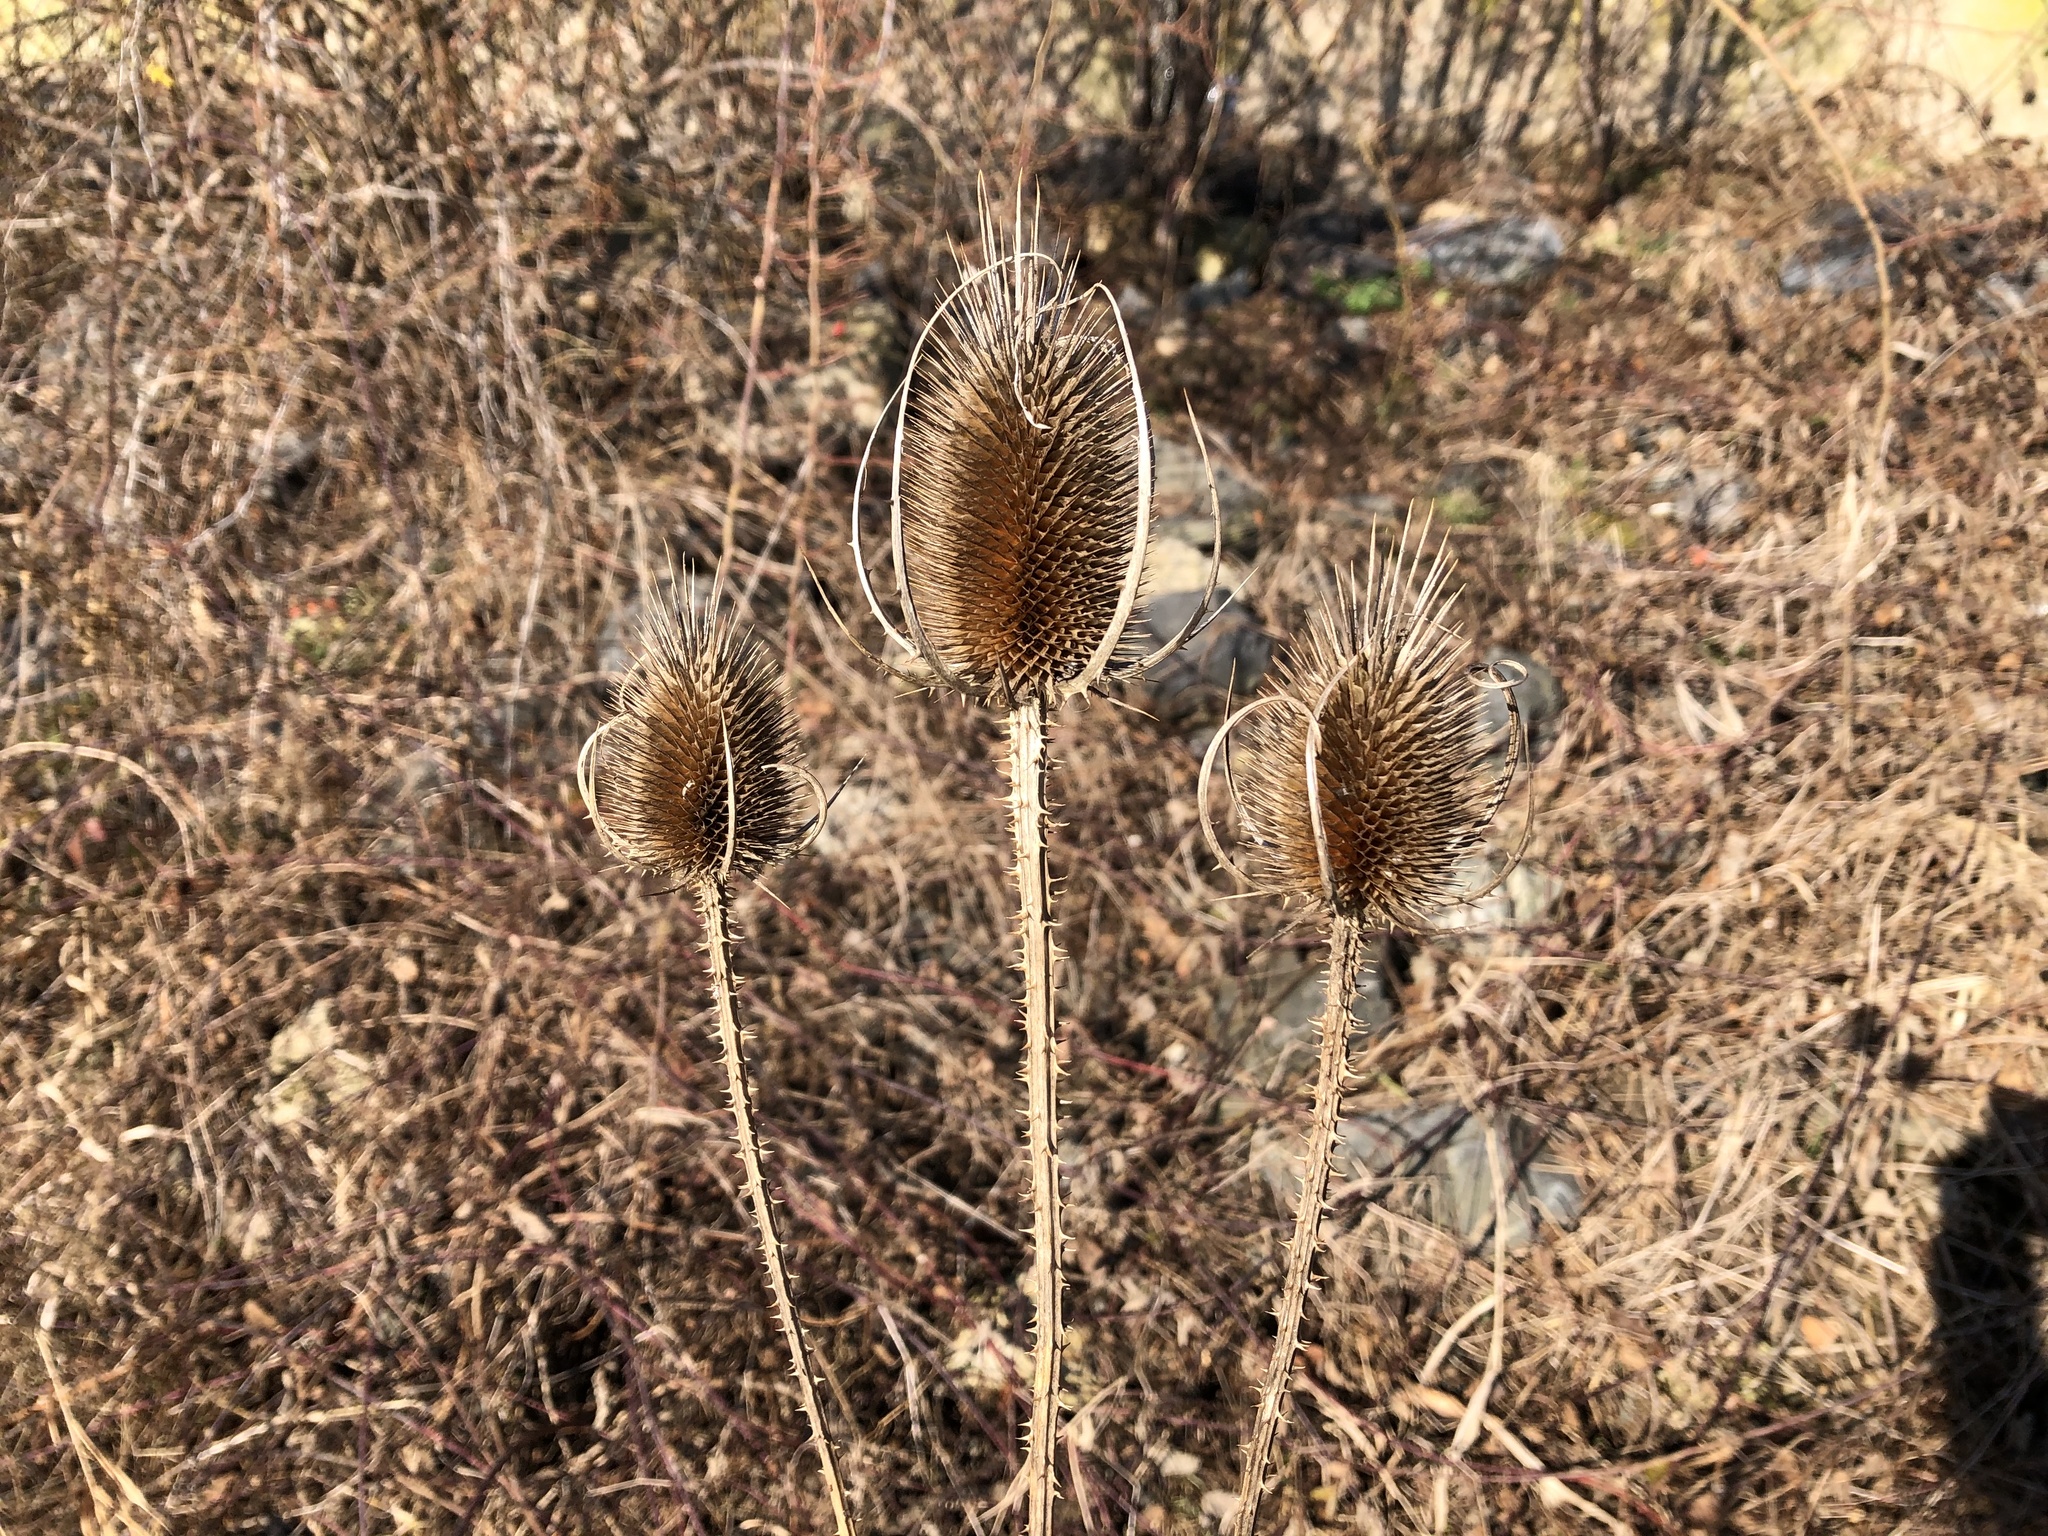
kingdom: Plantae
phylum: Tracheophyta
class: Magnoliopsida
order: Dipsacales
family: Caprifoliaceae
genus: Dipsacus
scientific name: Dipsacus fullonum
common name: Teasel
